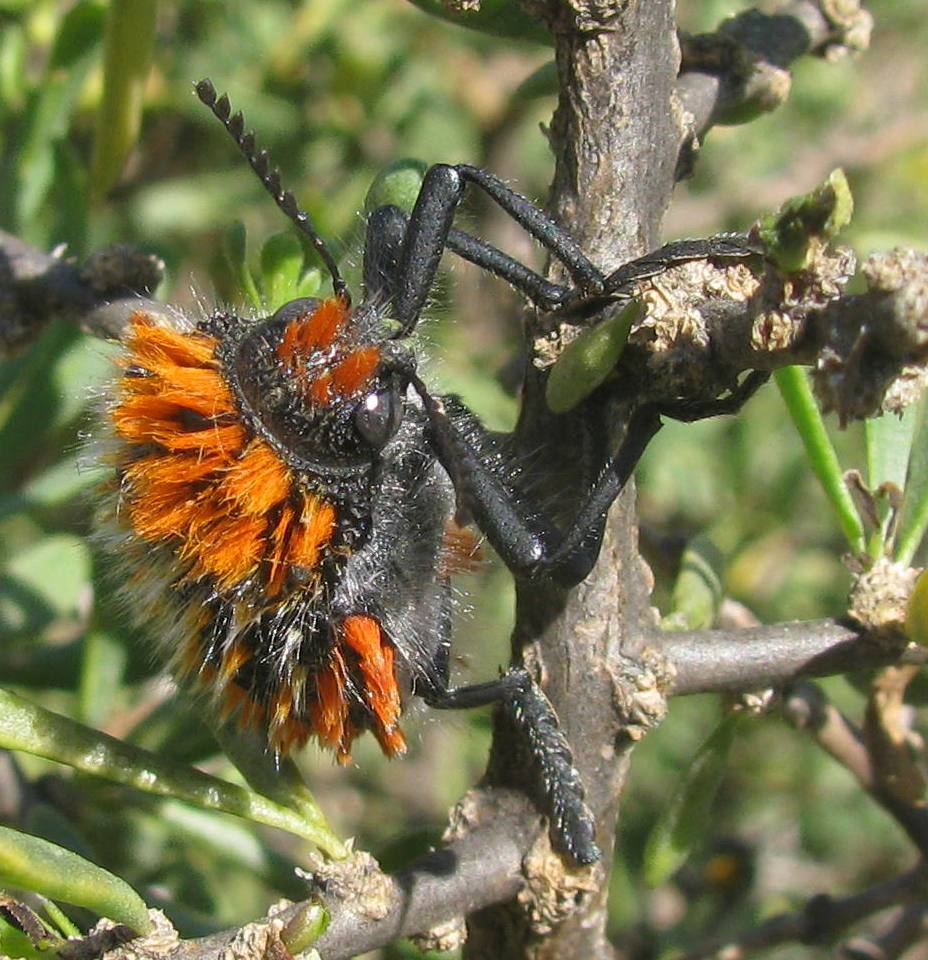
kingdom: Animalia
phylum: Arthropoda
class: Insecta
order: Coleoptera
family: Buprestidae
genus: Julodis
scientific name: Julodis cirrosa
